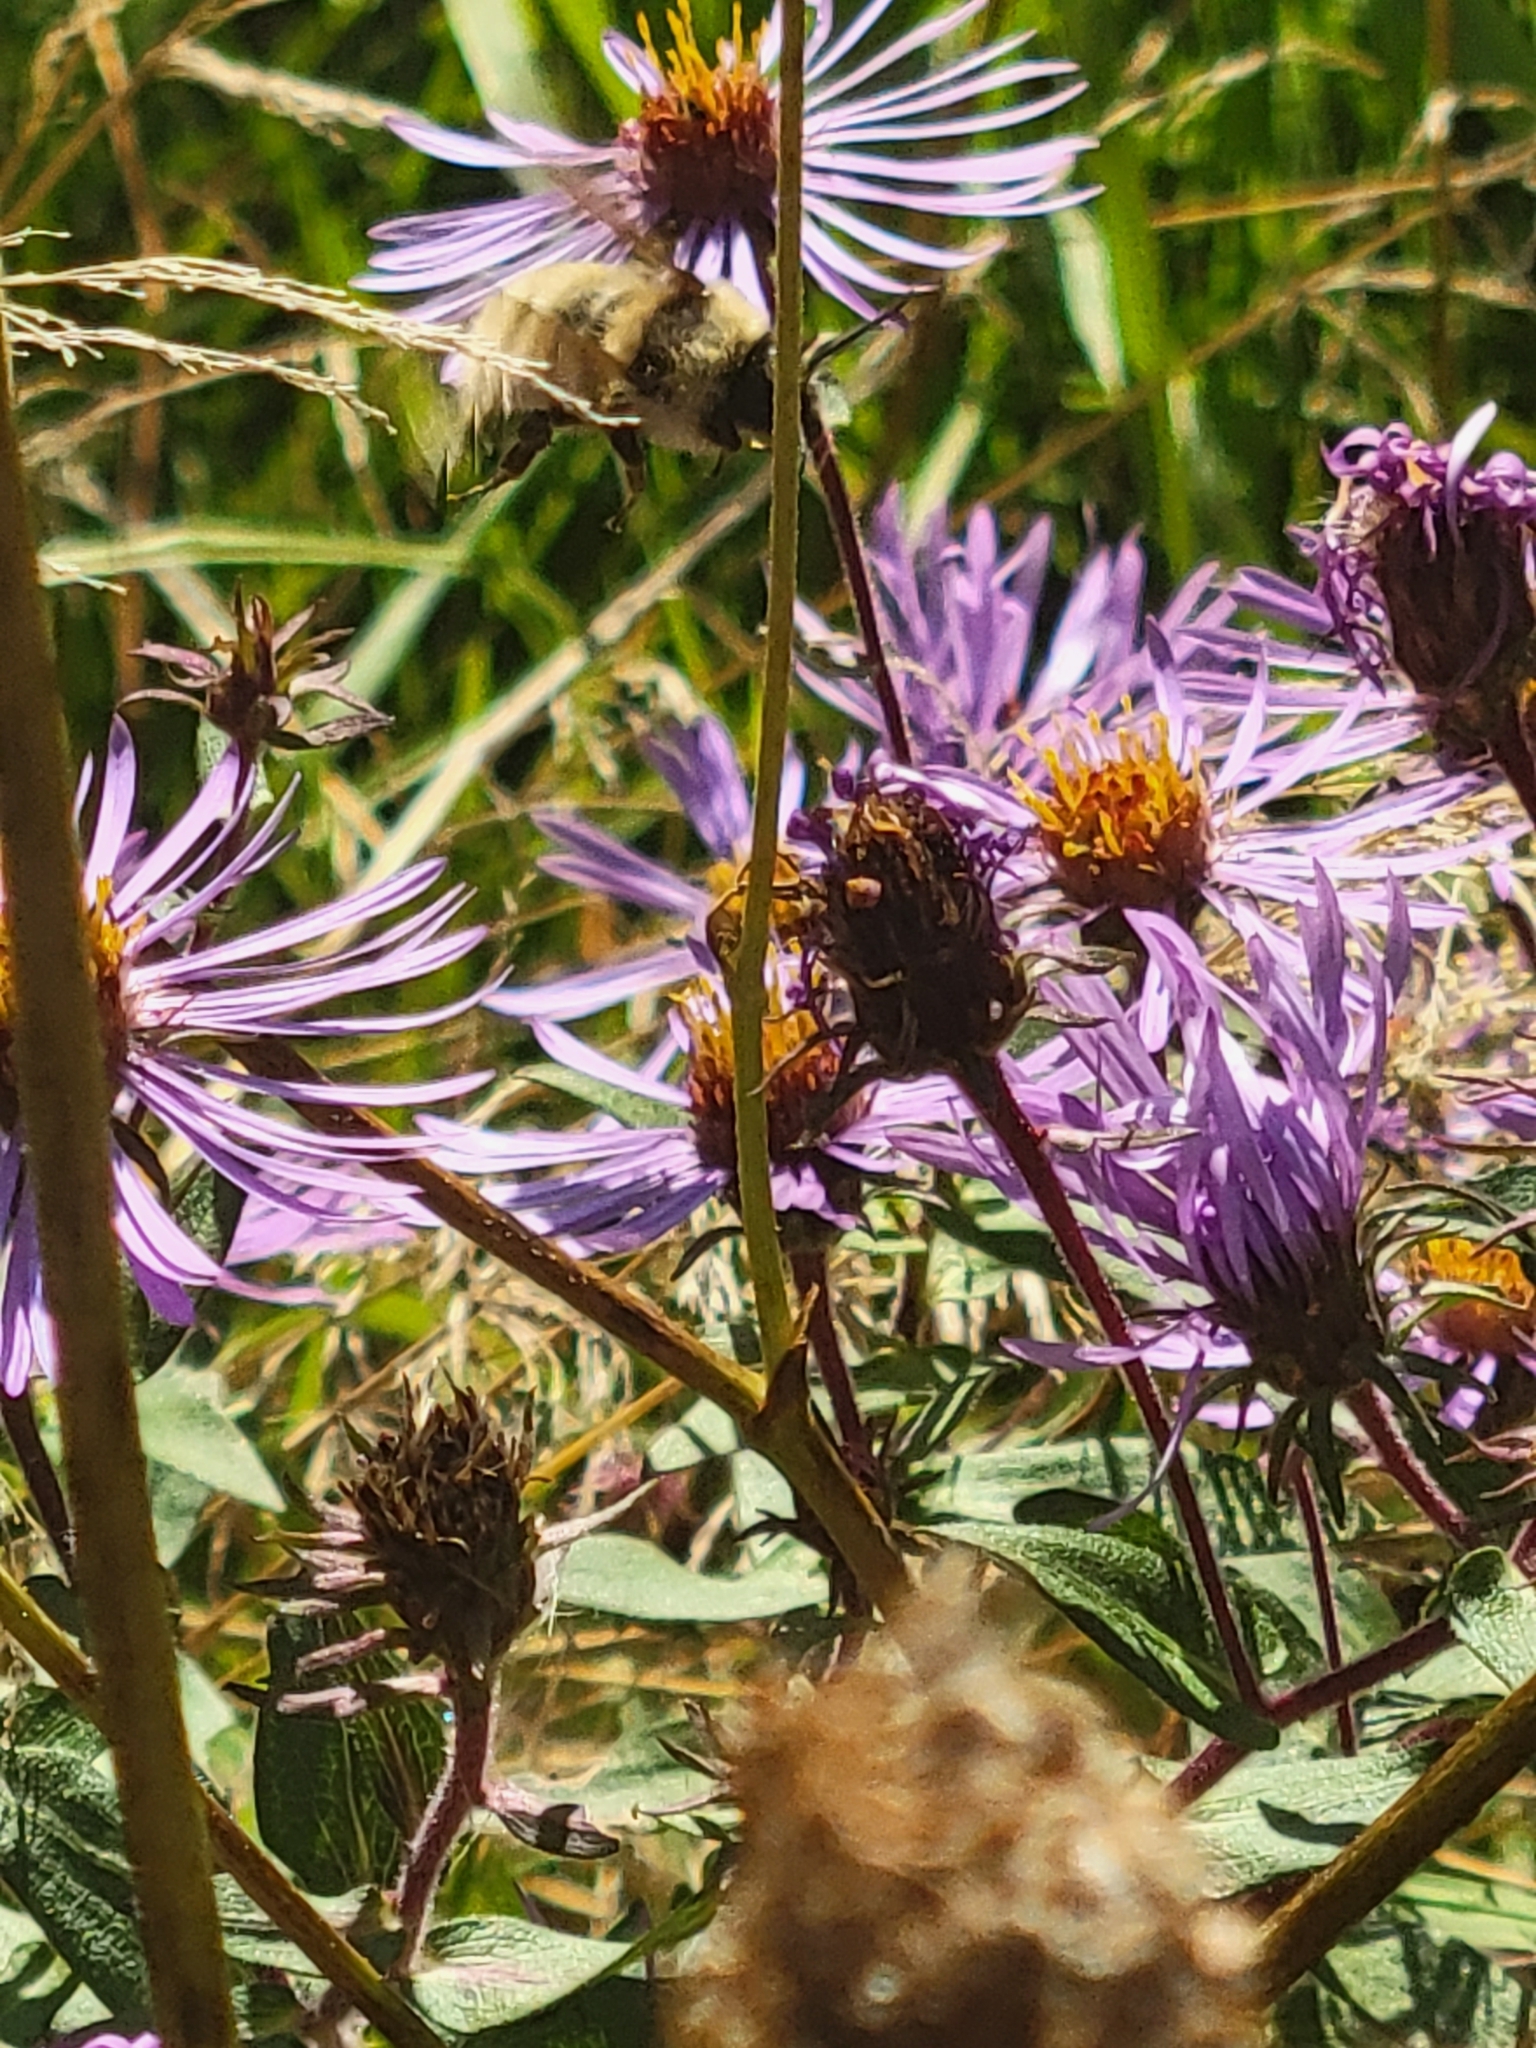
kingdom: Animalia
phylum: Arthropoda
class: Insecta
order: Hymenoptera
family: Apidae
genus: Bombus
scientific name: Bombus fervidus
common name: Yellow bumble bee
